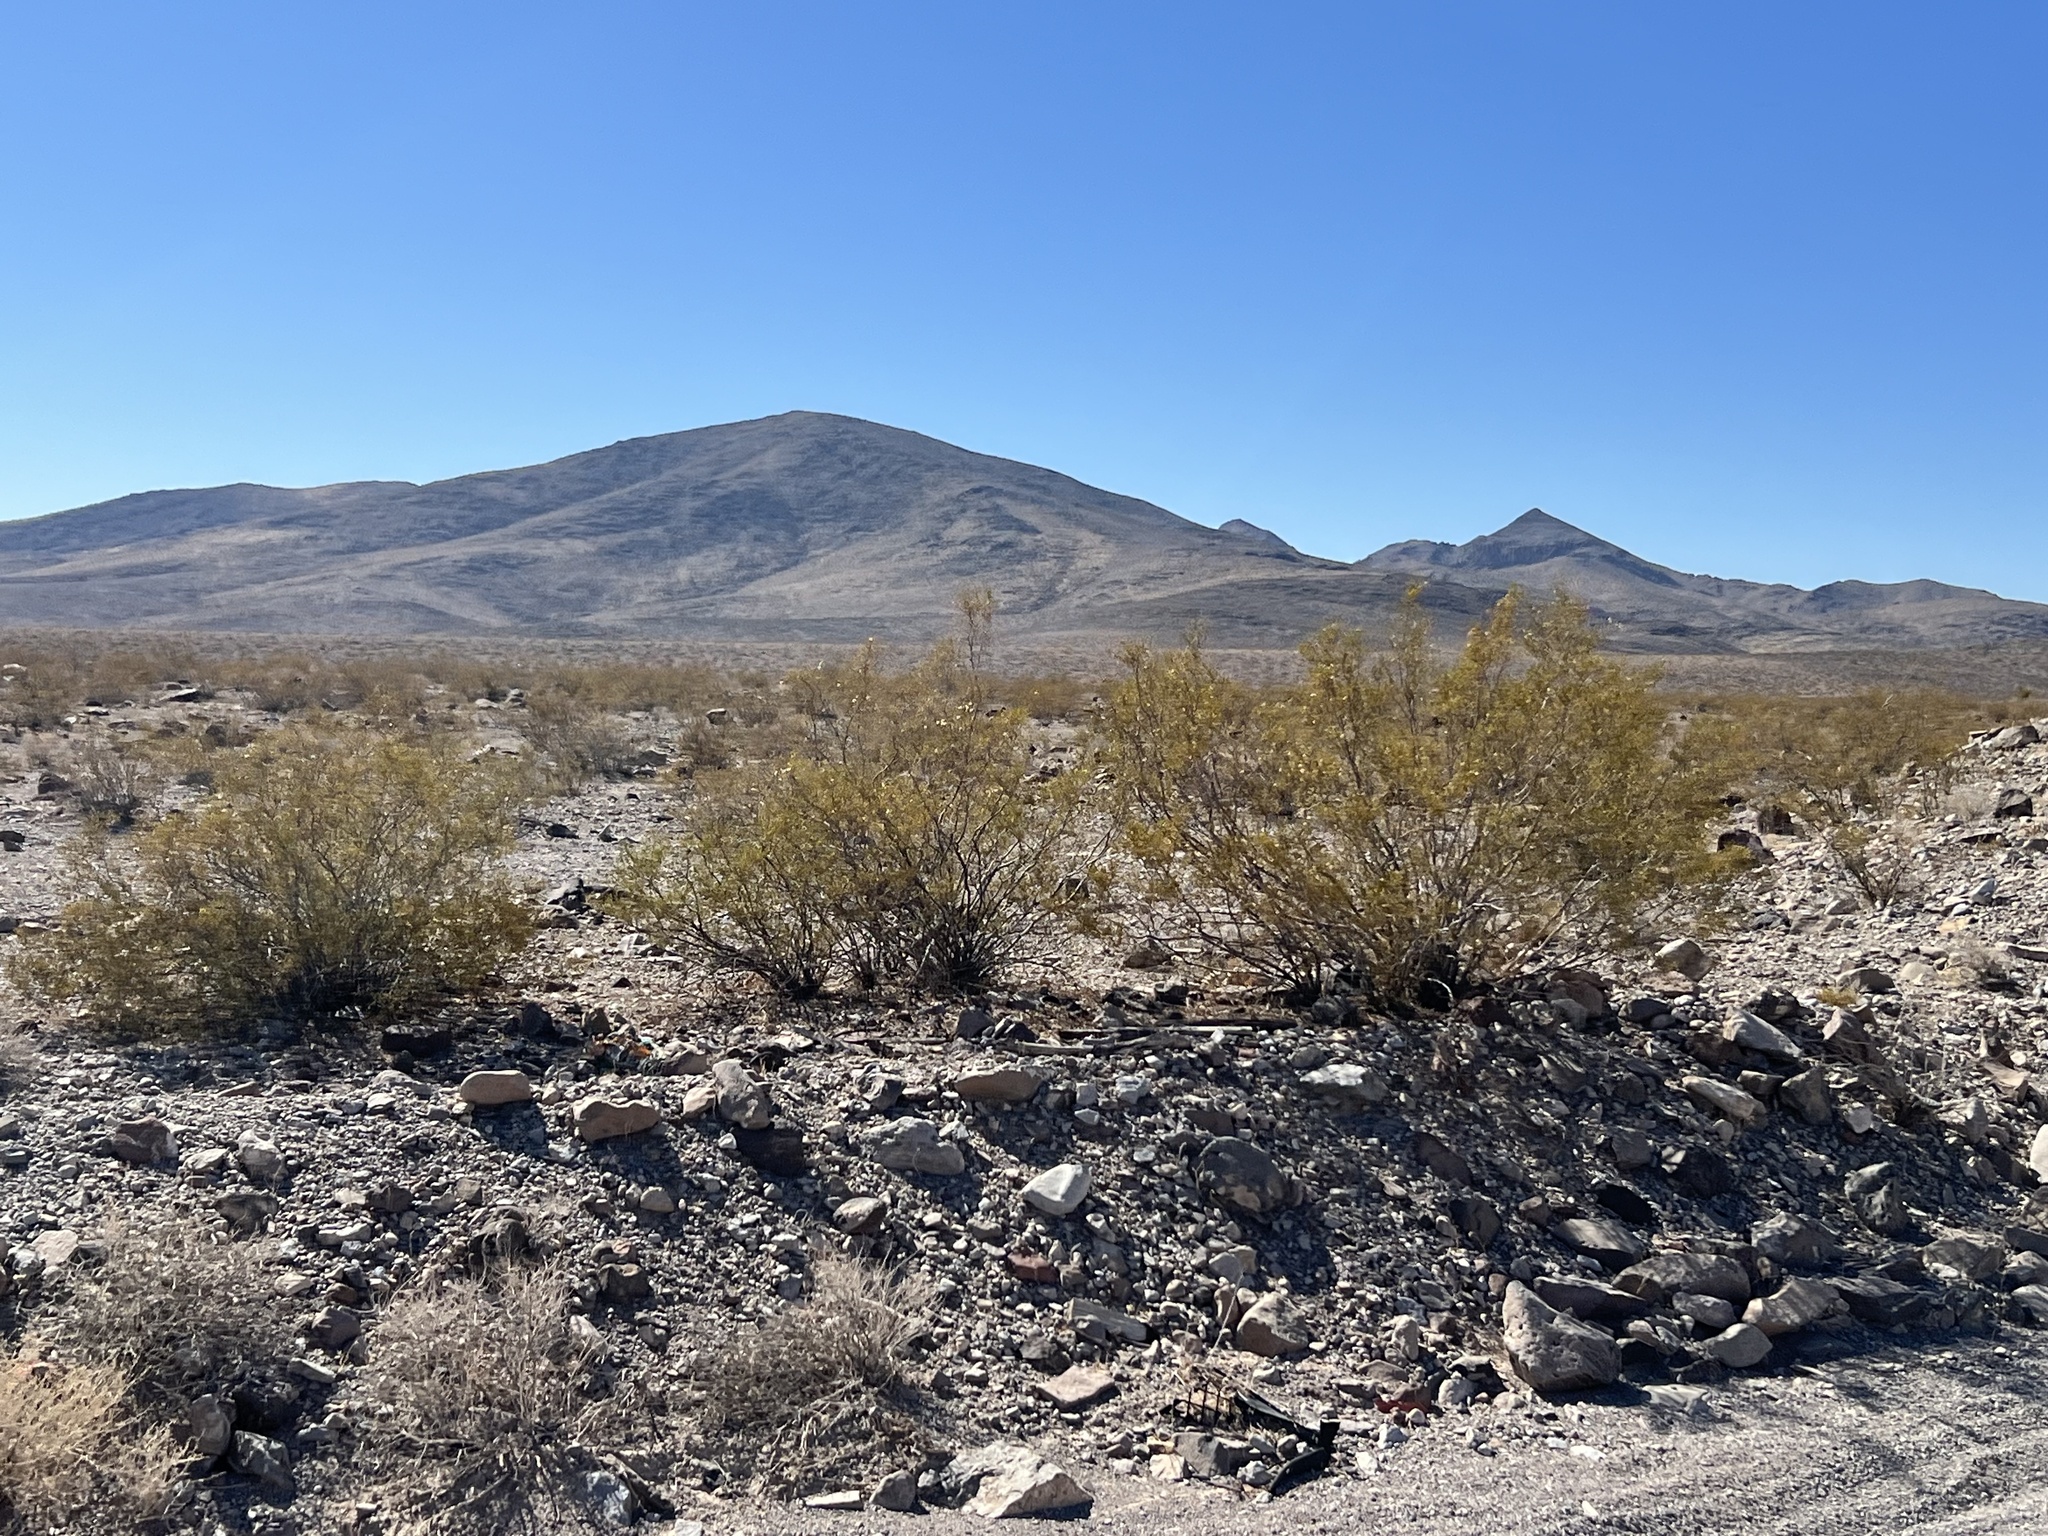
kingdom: Plantae
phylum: Tracheophyta
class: Magnoliopsida
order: Zygophyllales
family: Zygophyllaceae
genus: Larrea
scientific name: Larrea tridentata
